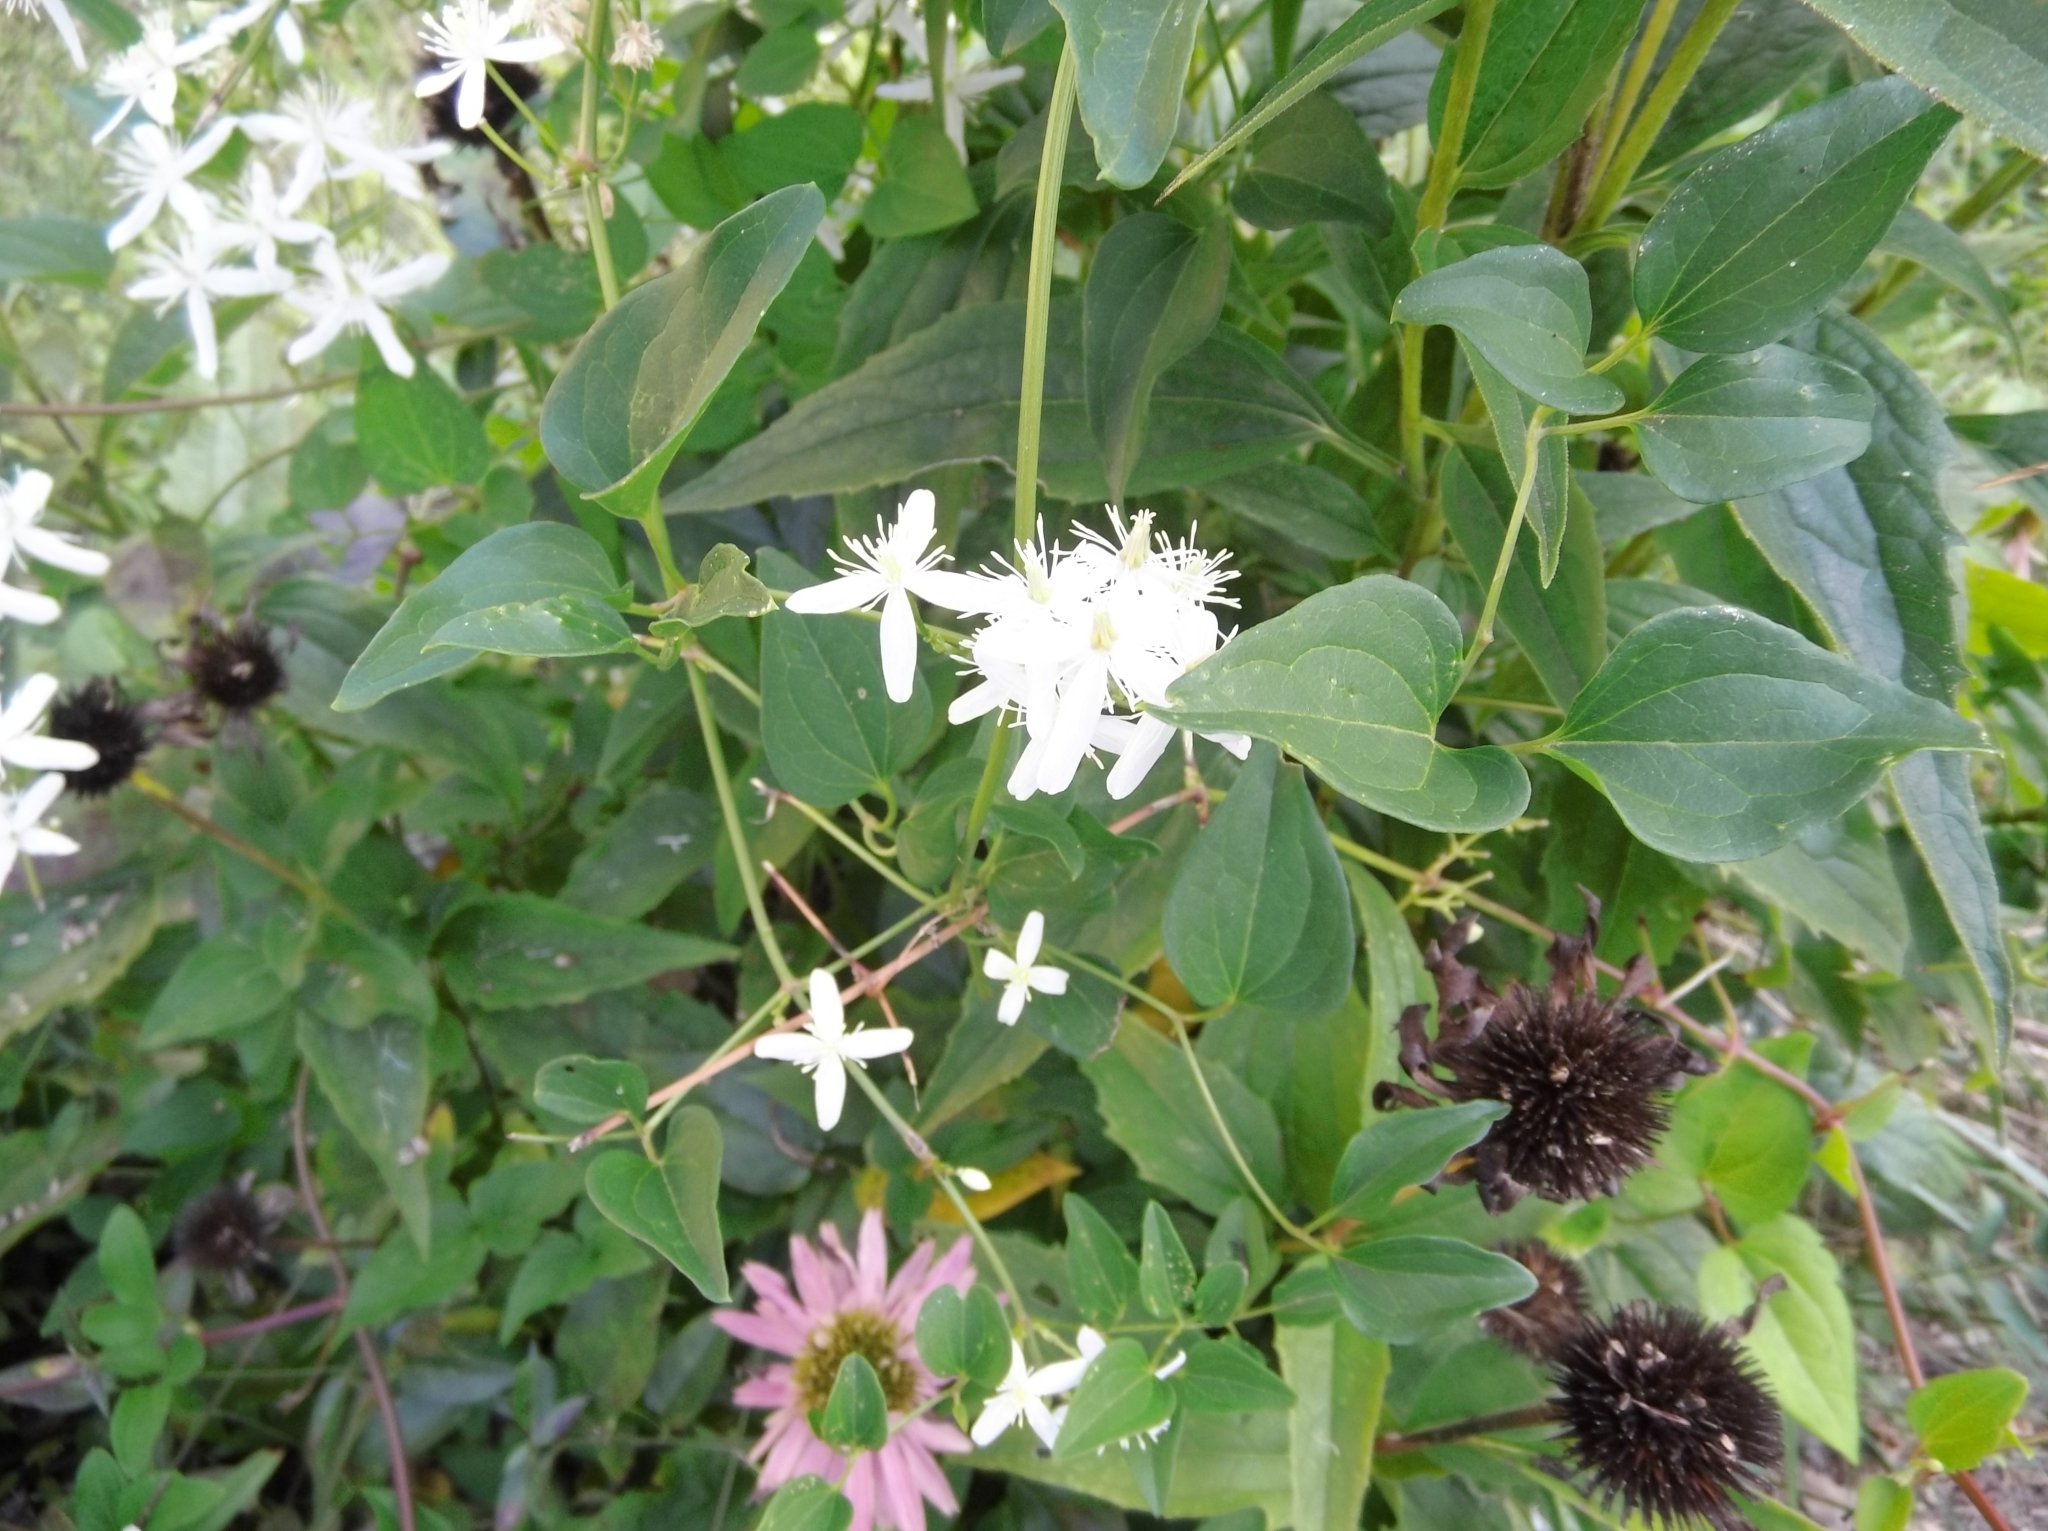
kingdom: Plantae
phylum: Tracheophyta
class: Magnoliopsida
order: Ranunculales
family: Ranunculaceae
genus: Clematis
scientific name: Clematis terniflora
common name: Sweet autumn clematis
